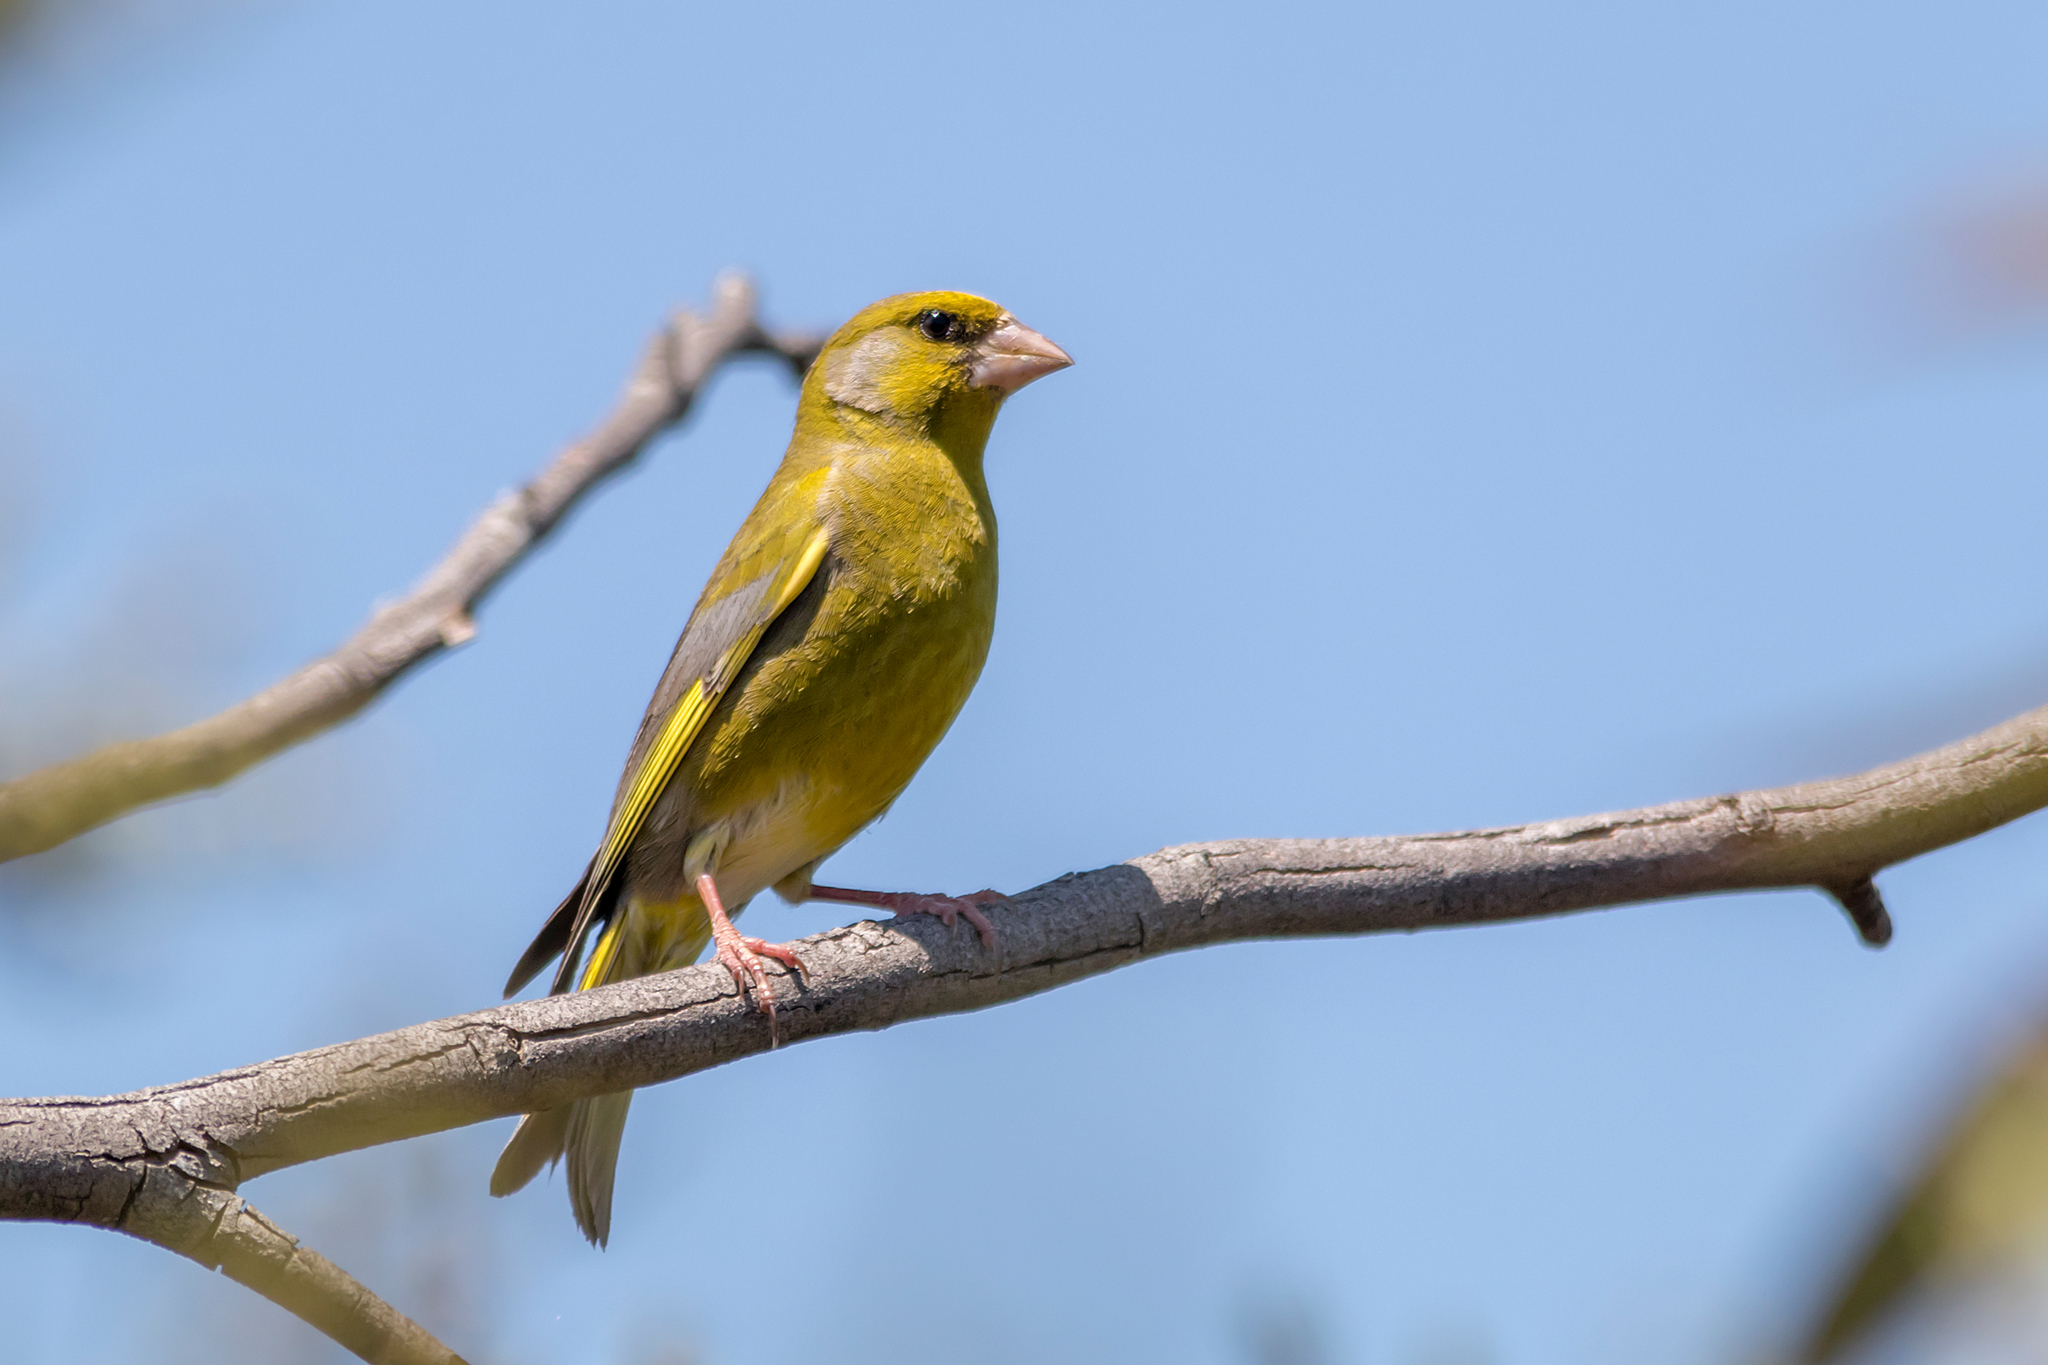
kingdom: Plantae
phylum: Tracheophyta
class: Liliopsida
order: Poales
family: Poaceae
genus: Chloris
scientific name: Chloris chloris
